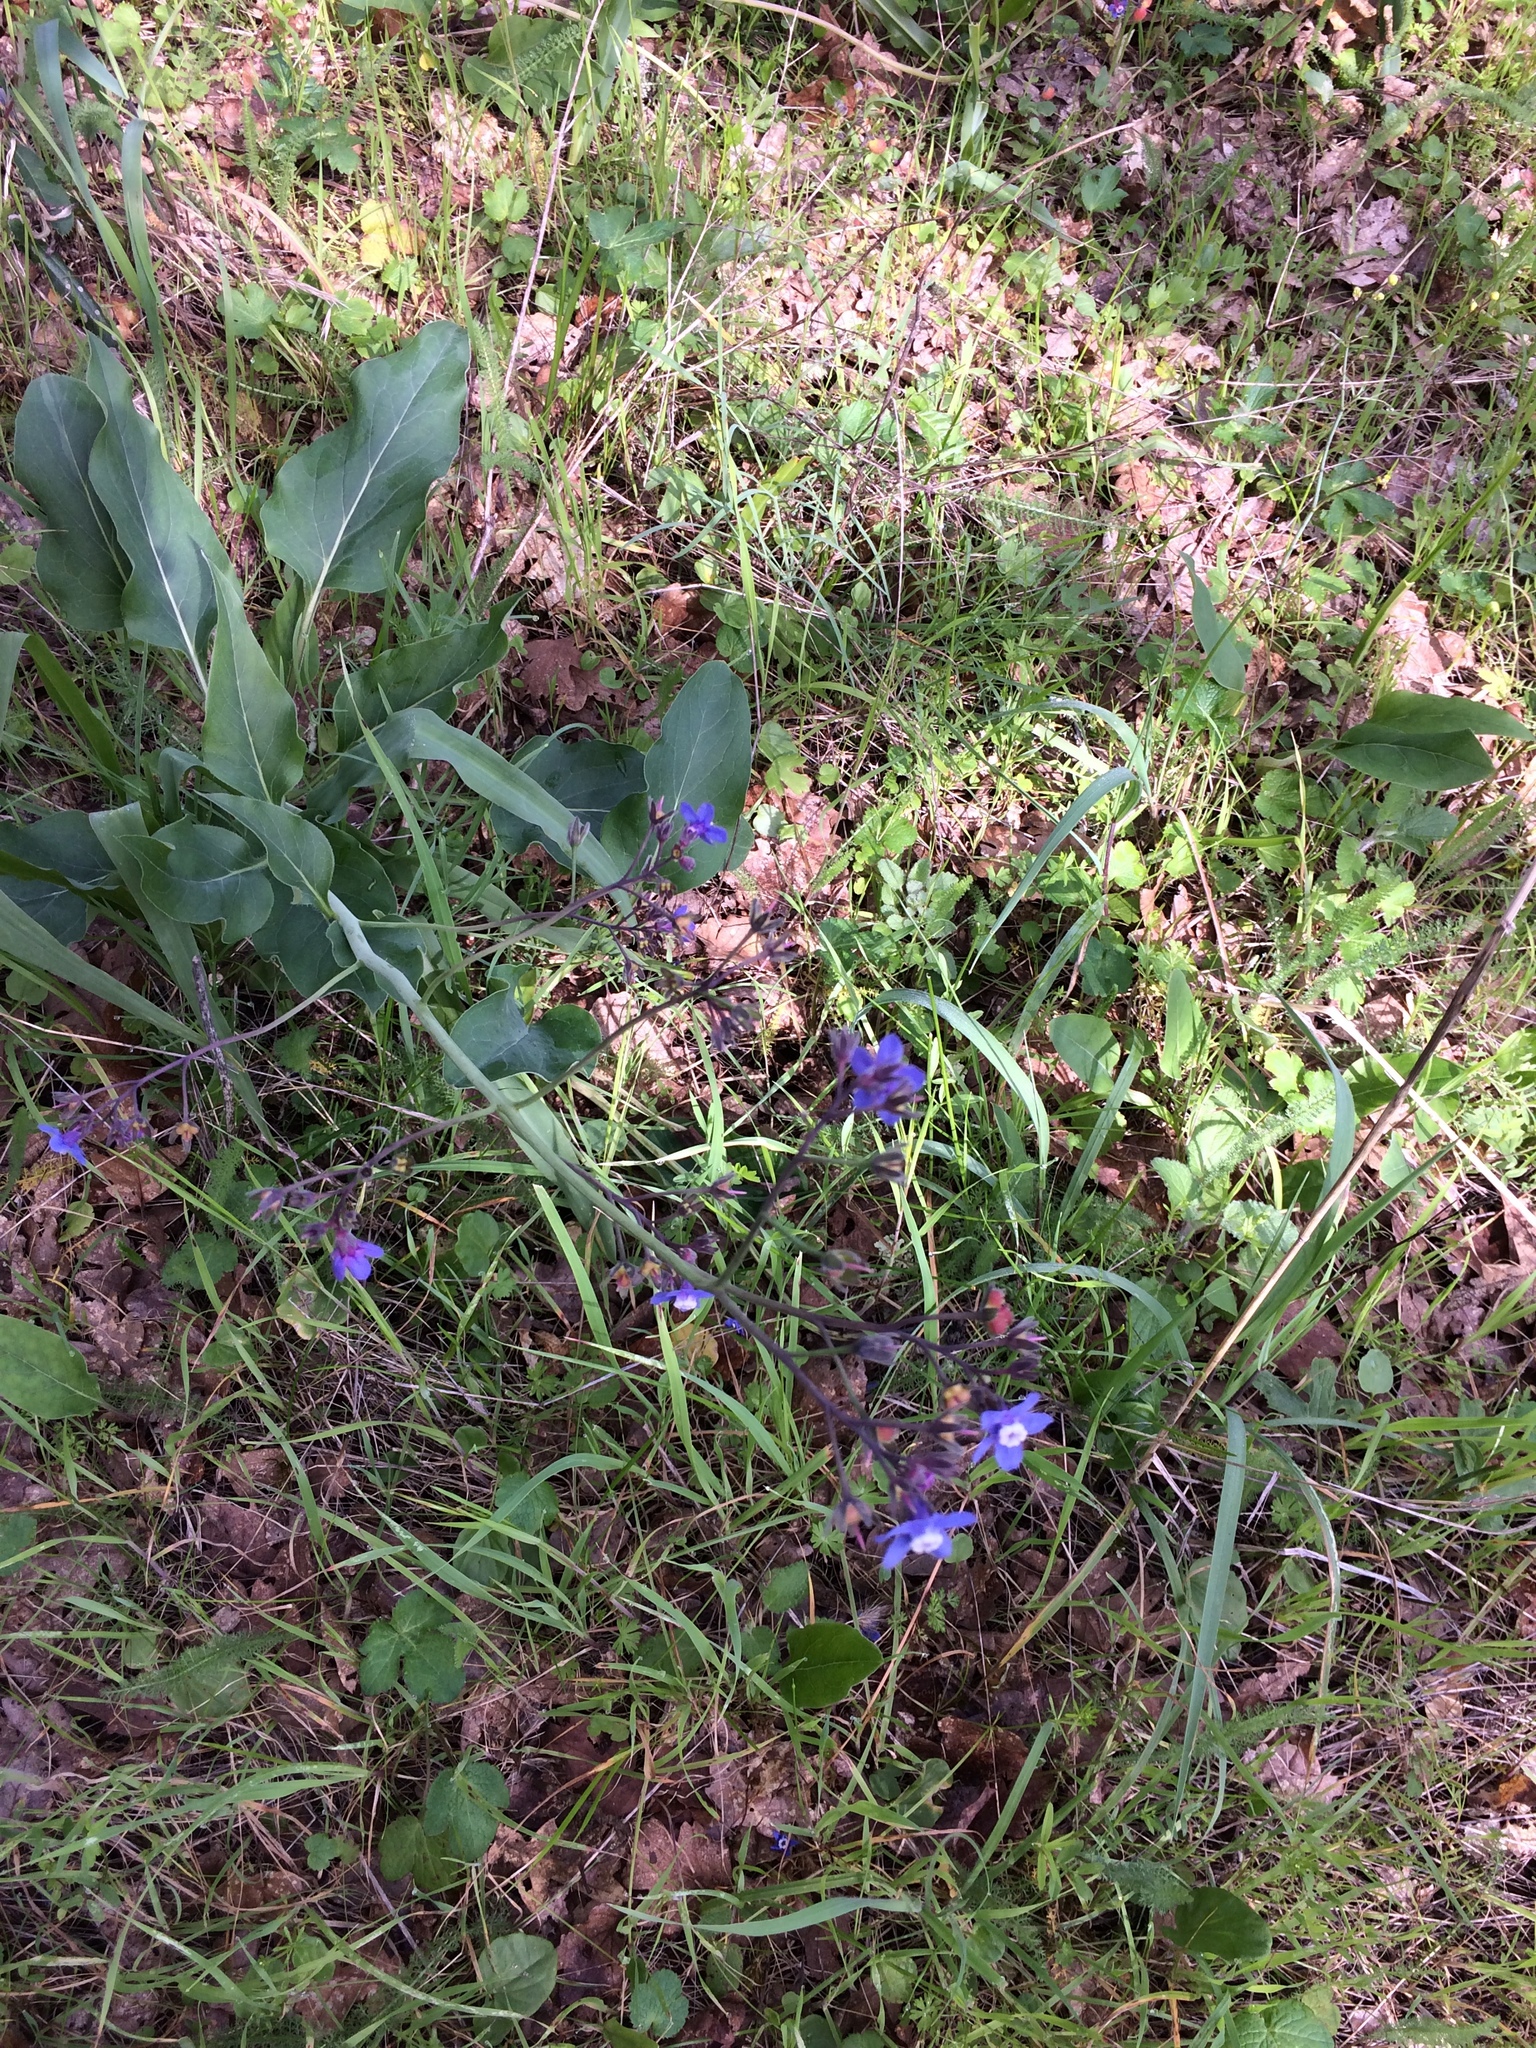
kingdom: Plantae
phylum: Tracheophyta
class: Magnoliopsida
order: Boraginales
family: Boraginaceae
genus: Adelinia
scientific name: Adelinia grande
